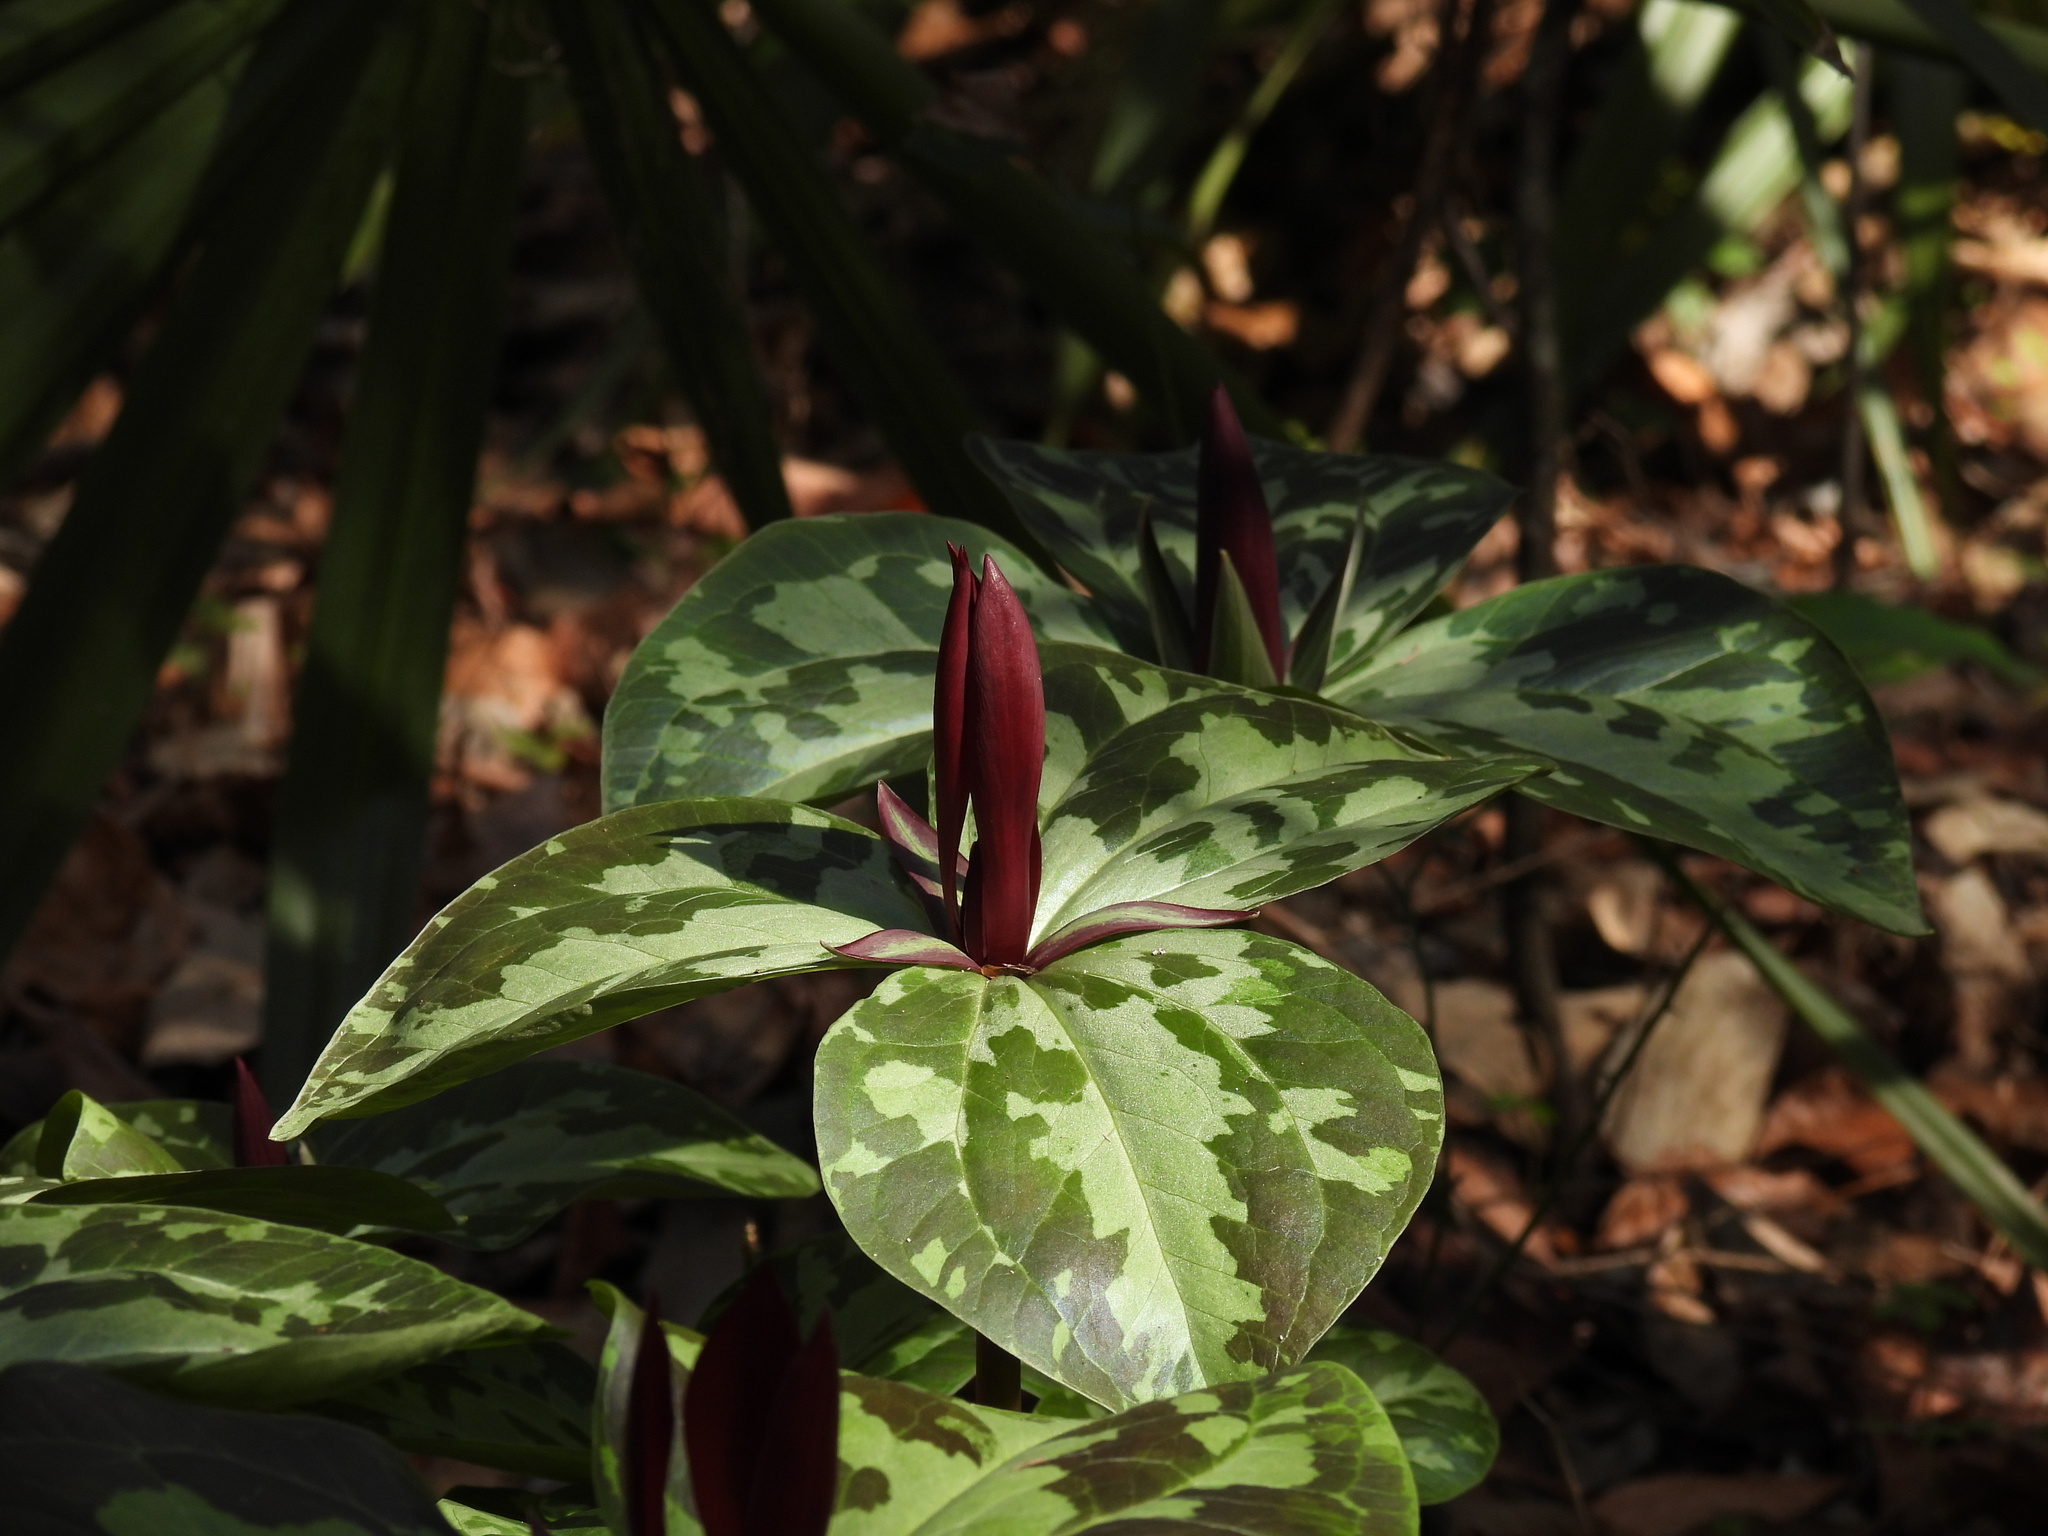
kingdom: Plantae
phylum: Tracheophyta
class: Liliopsida
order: Liliales
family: Melanthiaceae
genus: Trillium
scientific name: Trillium maculatum
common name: Mottled trillium
